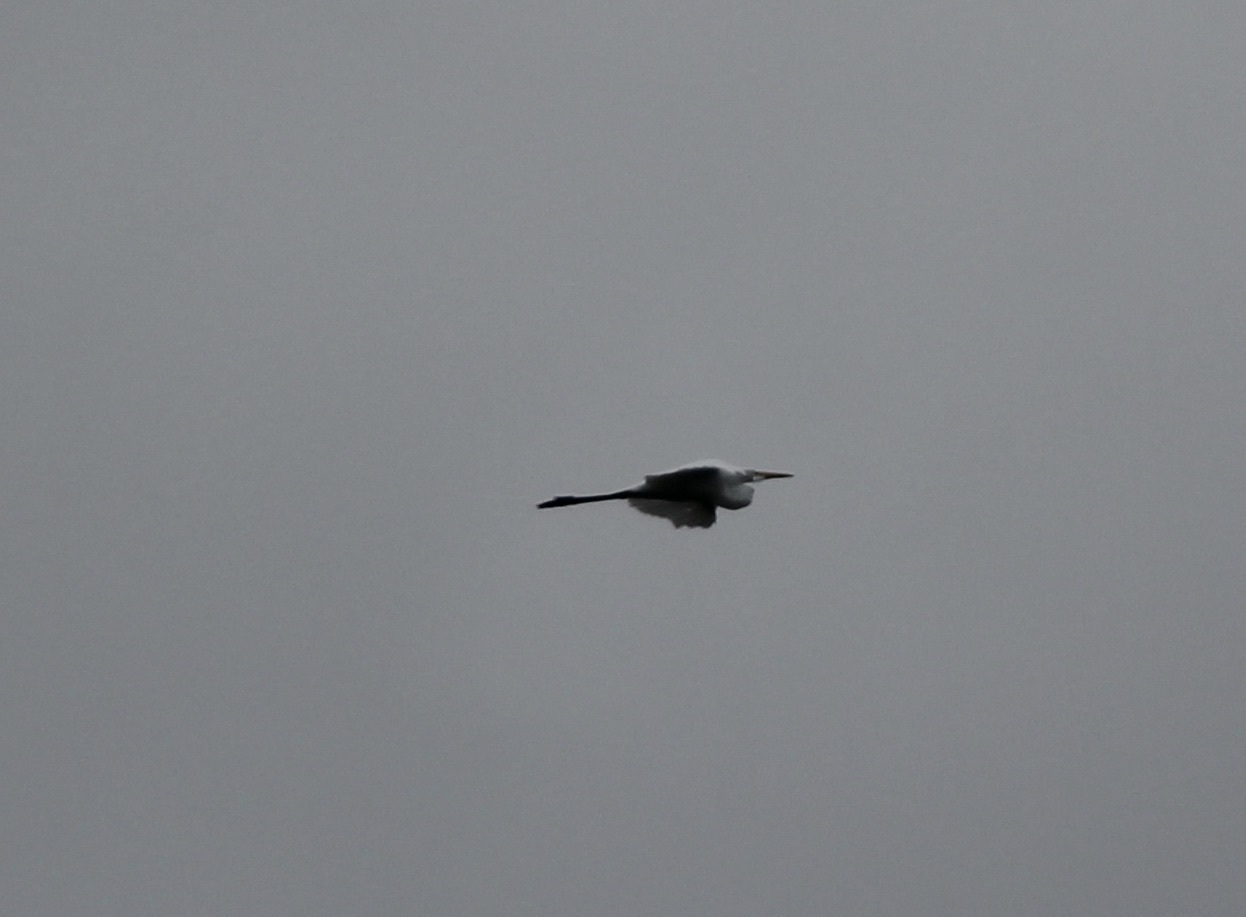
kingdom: Animalia
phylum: Chordata
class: Aves
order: Pelecaniformes
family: Ardeidae
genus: Ardea
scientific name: Ardea alba
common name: Great egret
